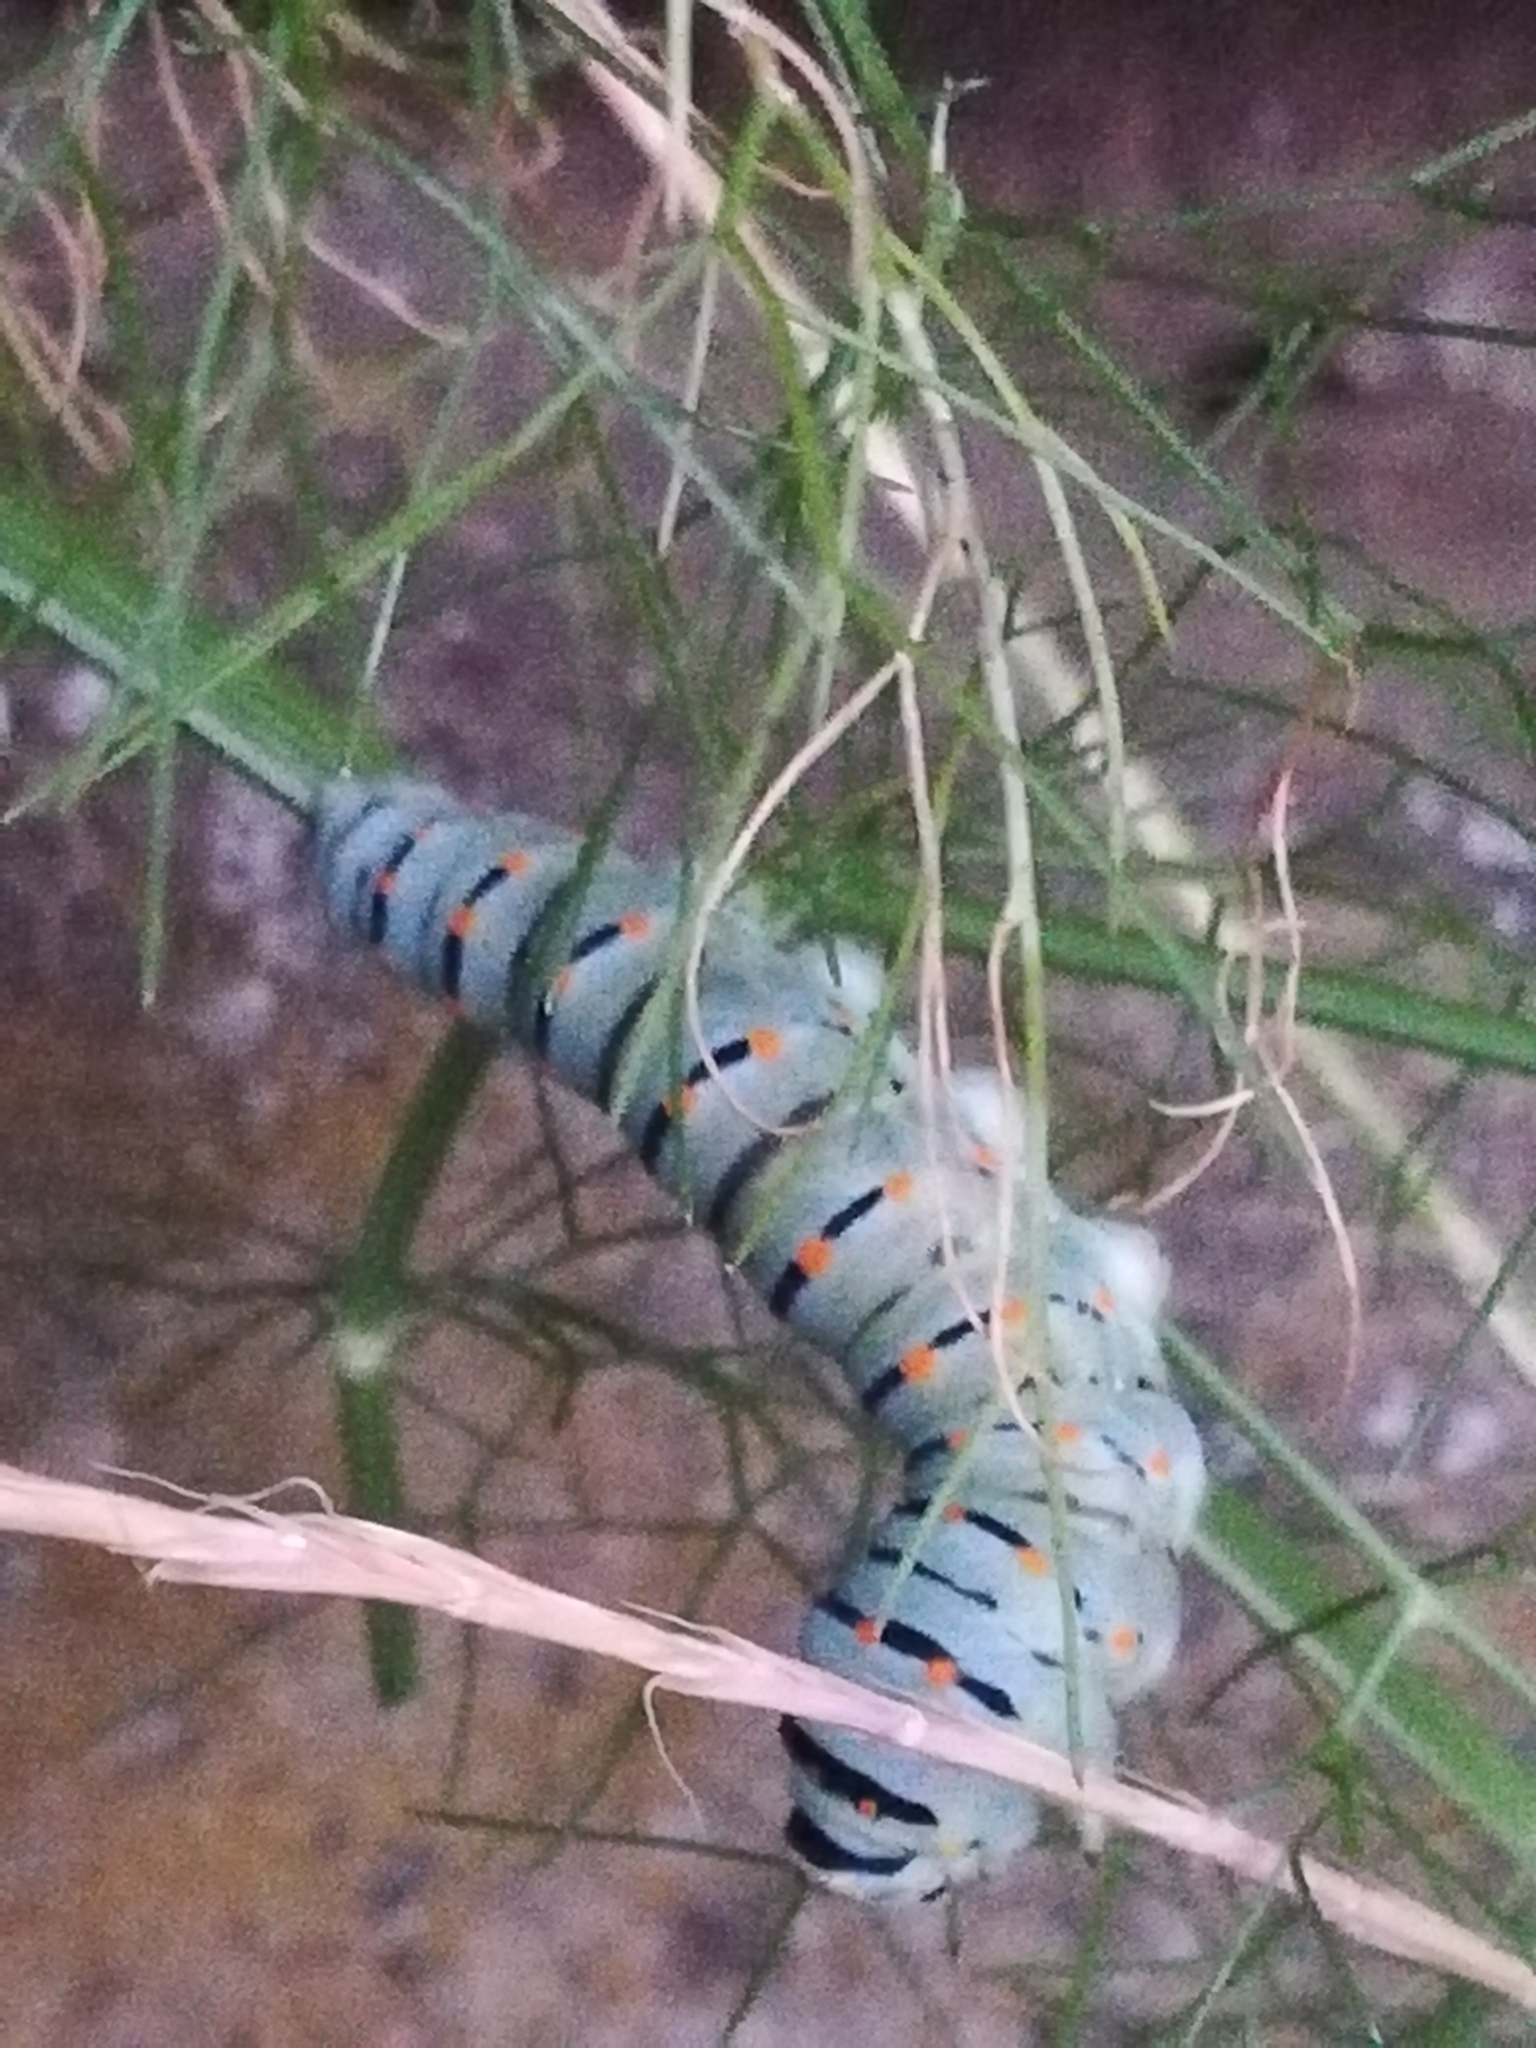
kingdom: Animalia
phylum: Arthropoda
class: Insecta
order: Lepidoptera
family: Papilionidae
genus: Papilio
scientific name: Papilio machaon
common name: Swallowtail
